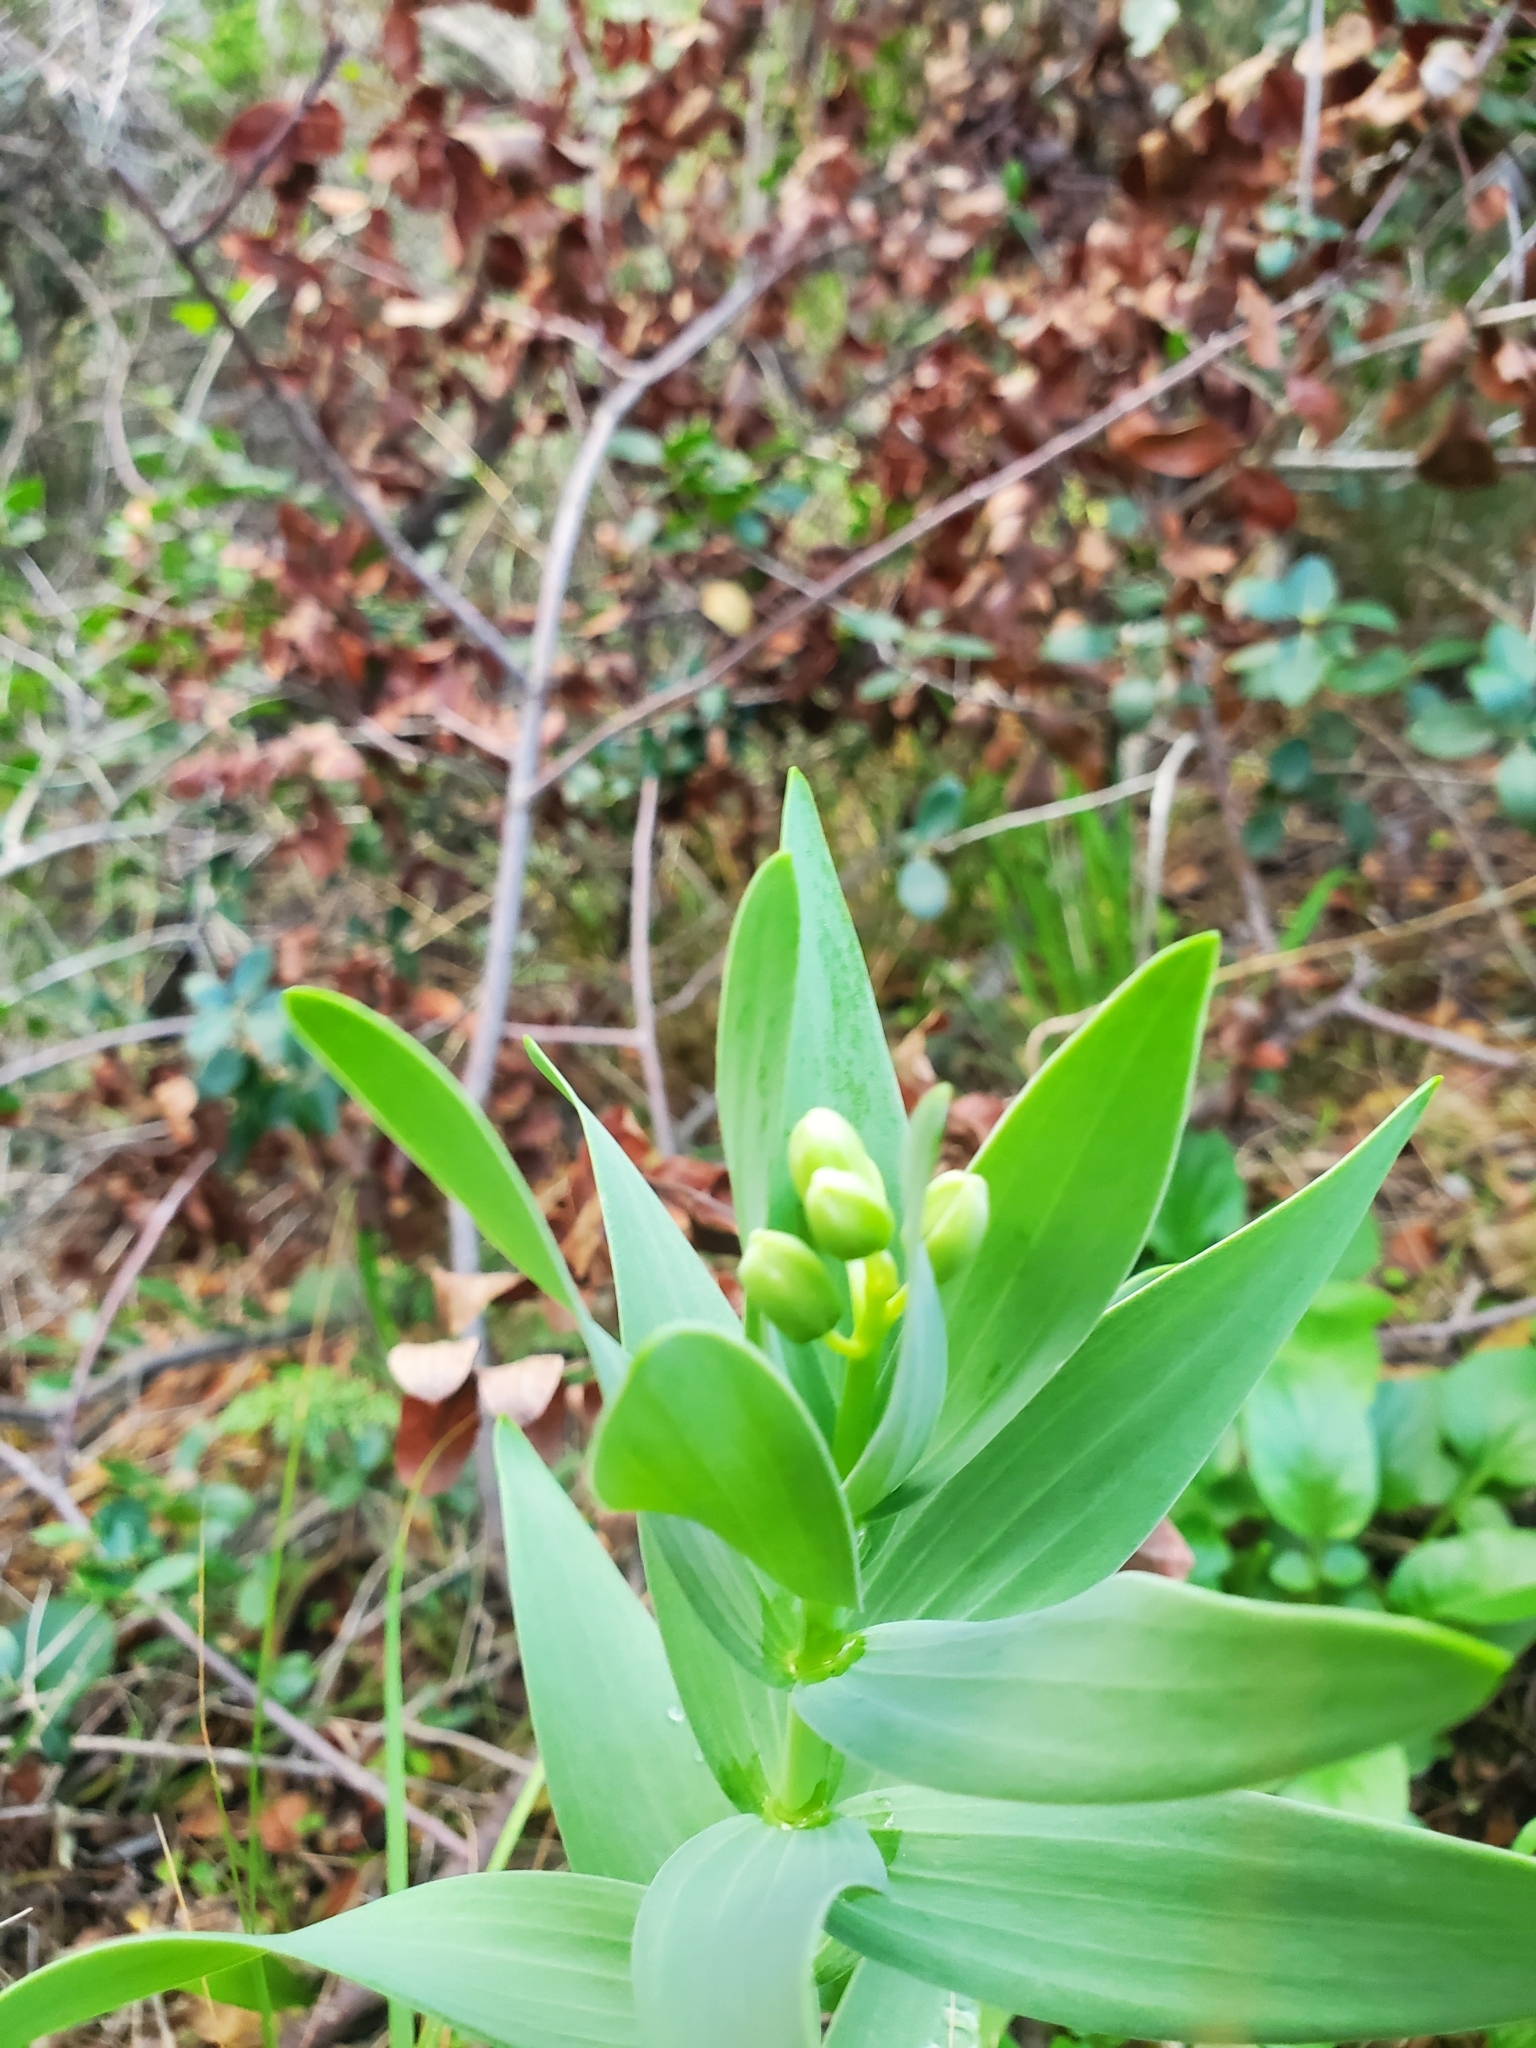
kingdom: Plantae
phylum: Tracheophyta
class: Liliopsida
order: Liliales
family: Liliaceae
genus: Fritillaria
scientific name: Fritillaria persica
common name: Persian fritillary
